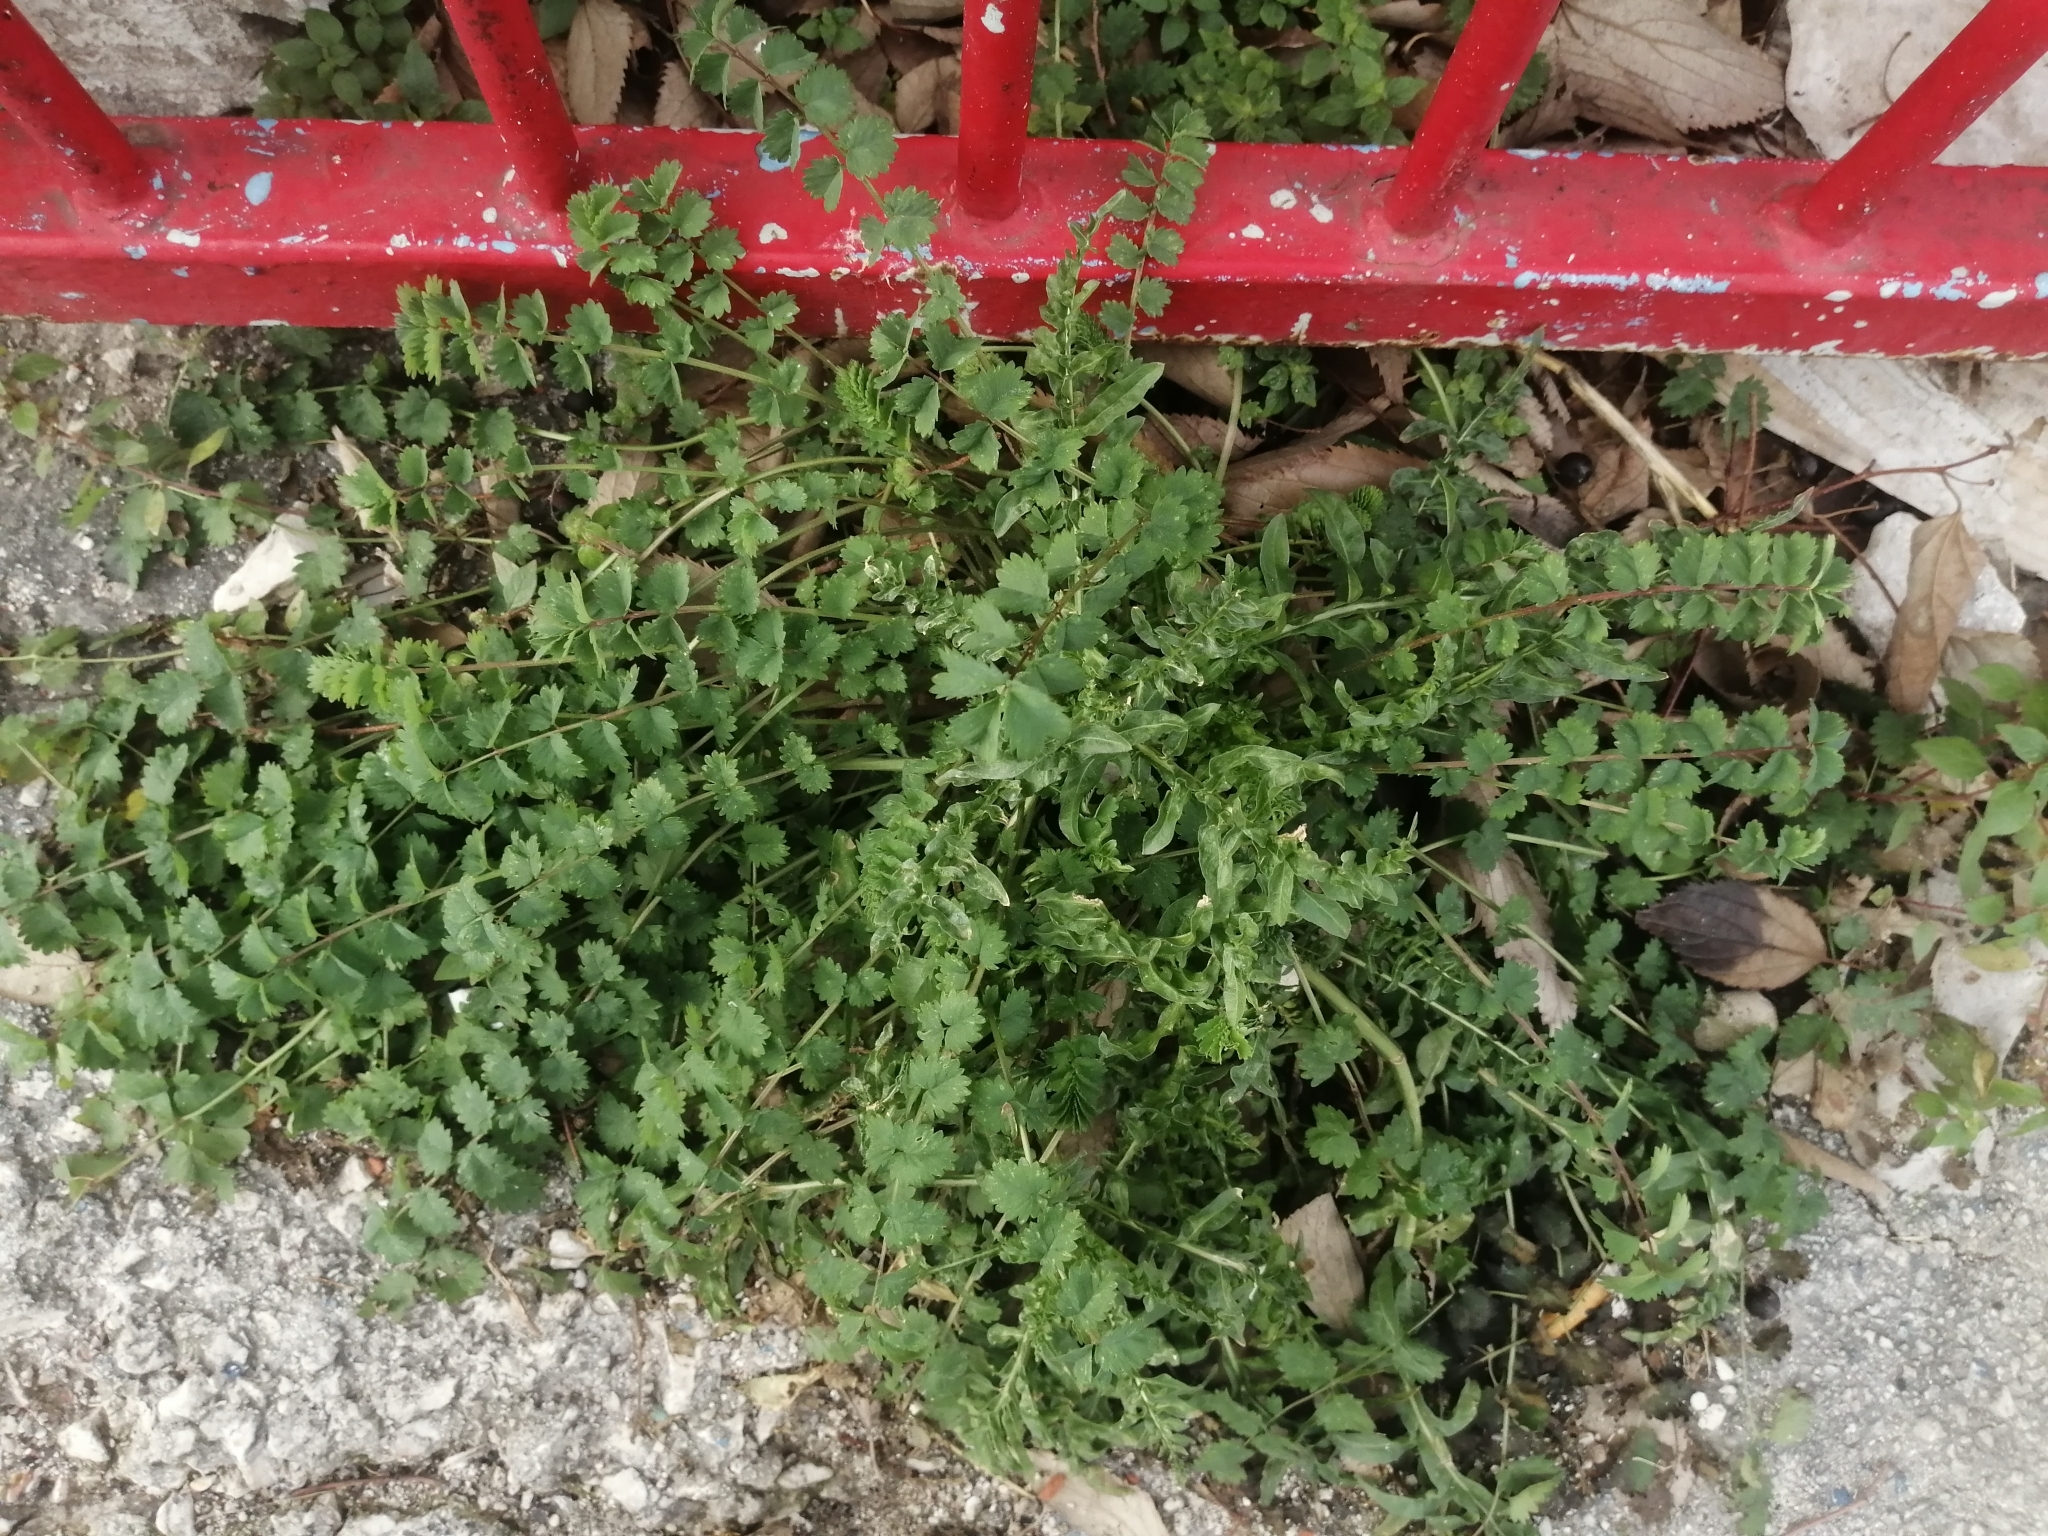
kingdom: Plantae
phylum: Tracheophyta
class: Magnoliopsida
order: Rosales
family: Rosaceae
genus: Poterium
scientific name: Poterium sanguisorba
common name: Salad burnet
